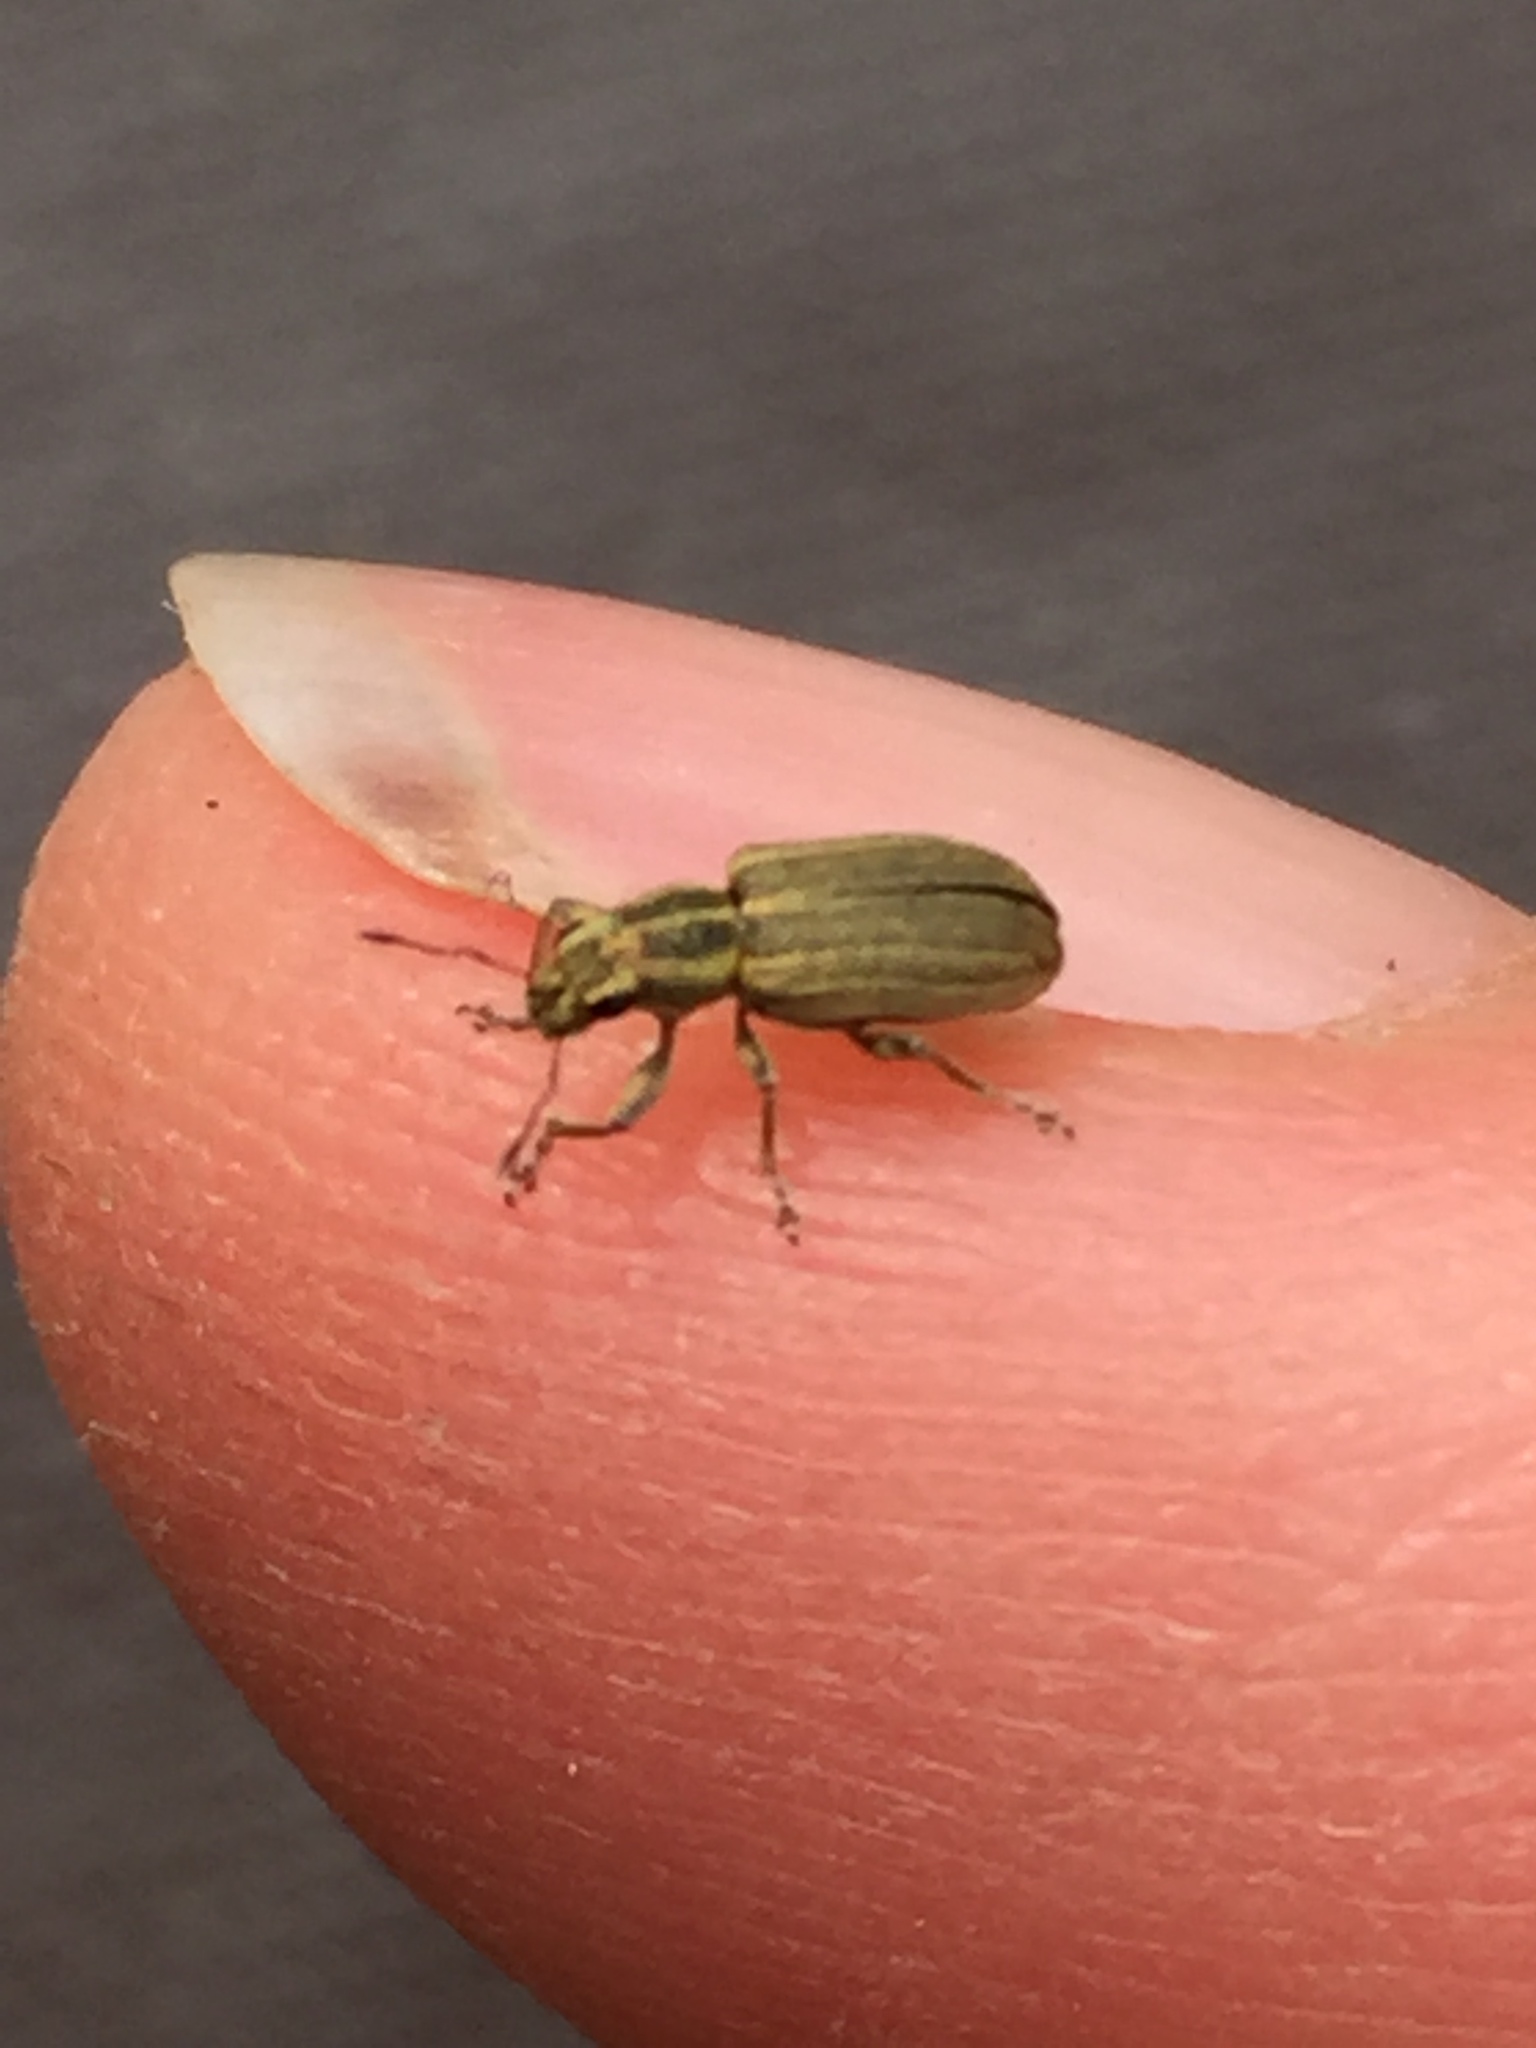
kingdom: Animalia
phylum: Arthropoda
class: Insecta
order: Coleoptera
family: Curculionidae
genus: Sitona
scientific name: Sitona lineatus
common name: Weevil
